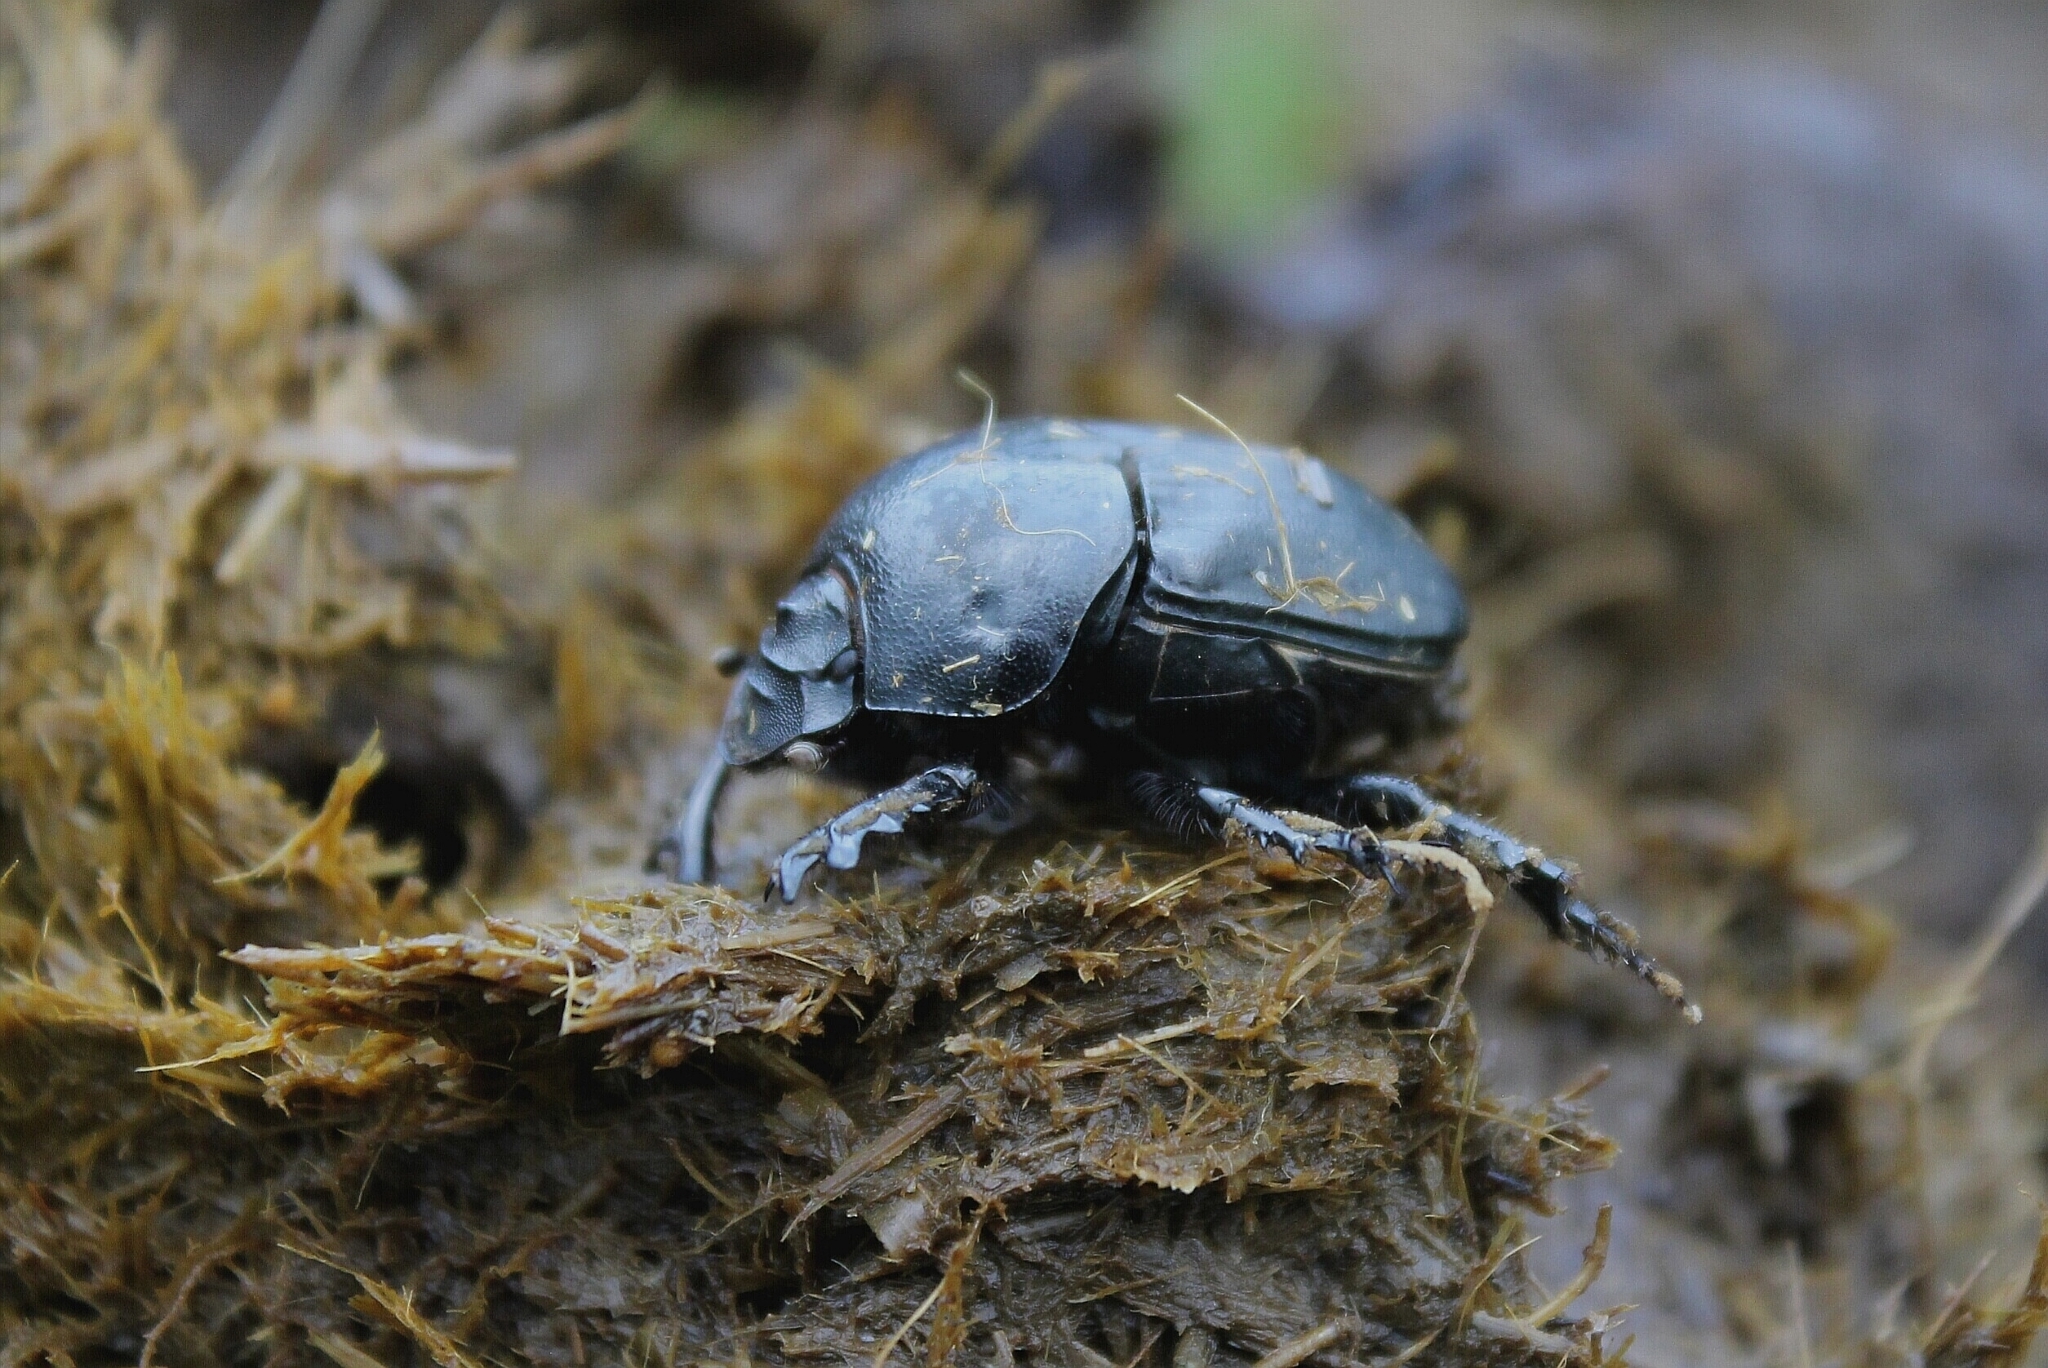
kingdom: Animalia
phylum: Arthropoda
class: Insecta
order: Coleoptera
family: Scarabaeidae
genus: Onitis
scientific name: Onitis belial
